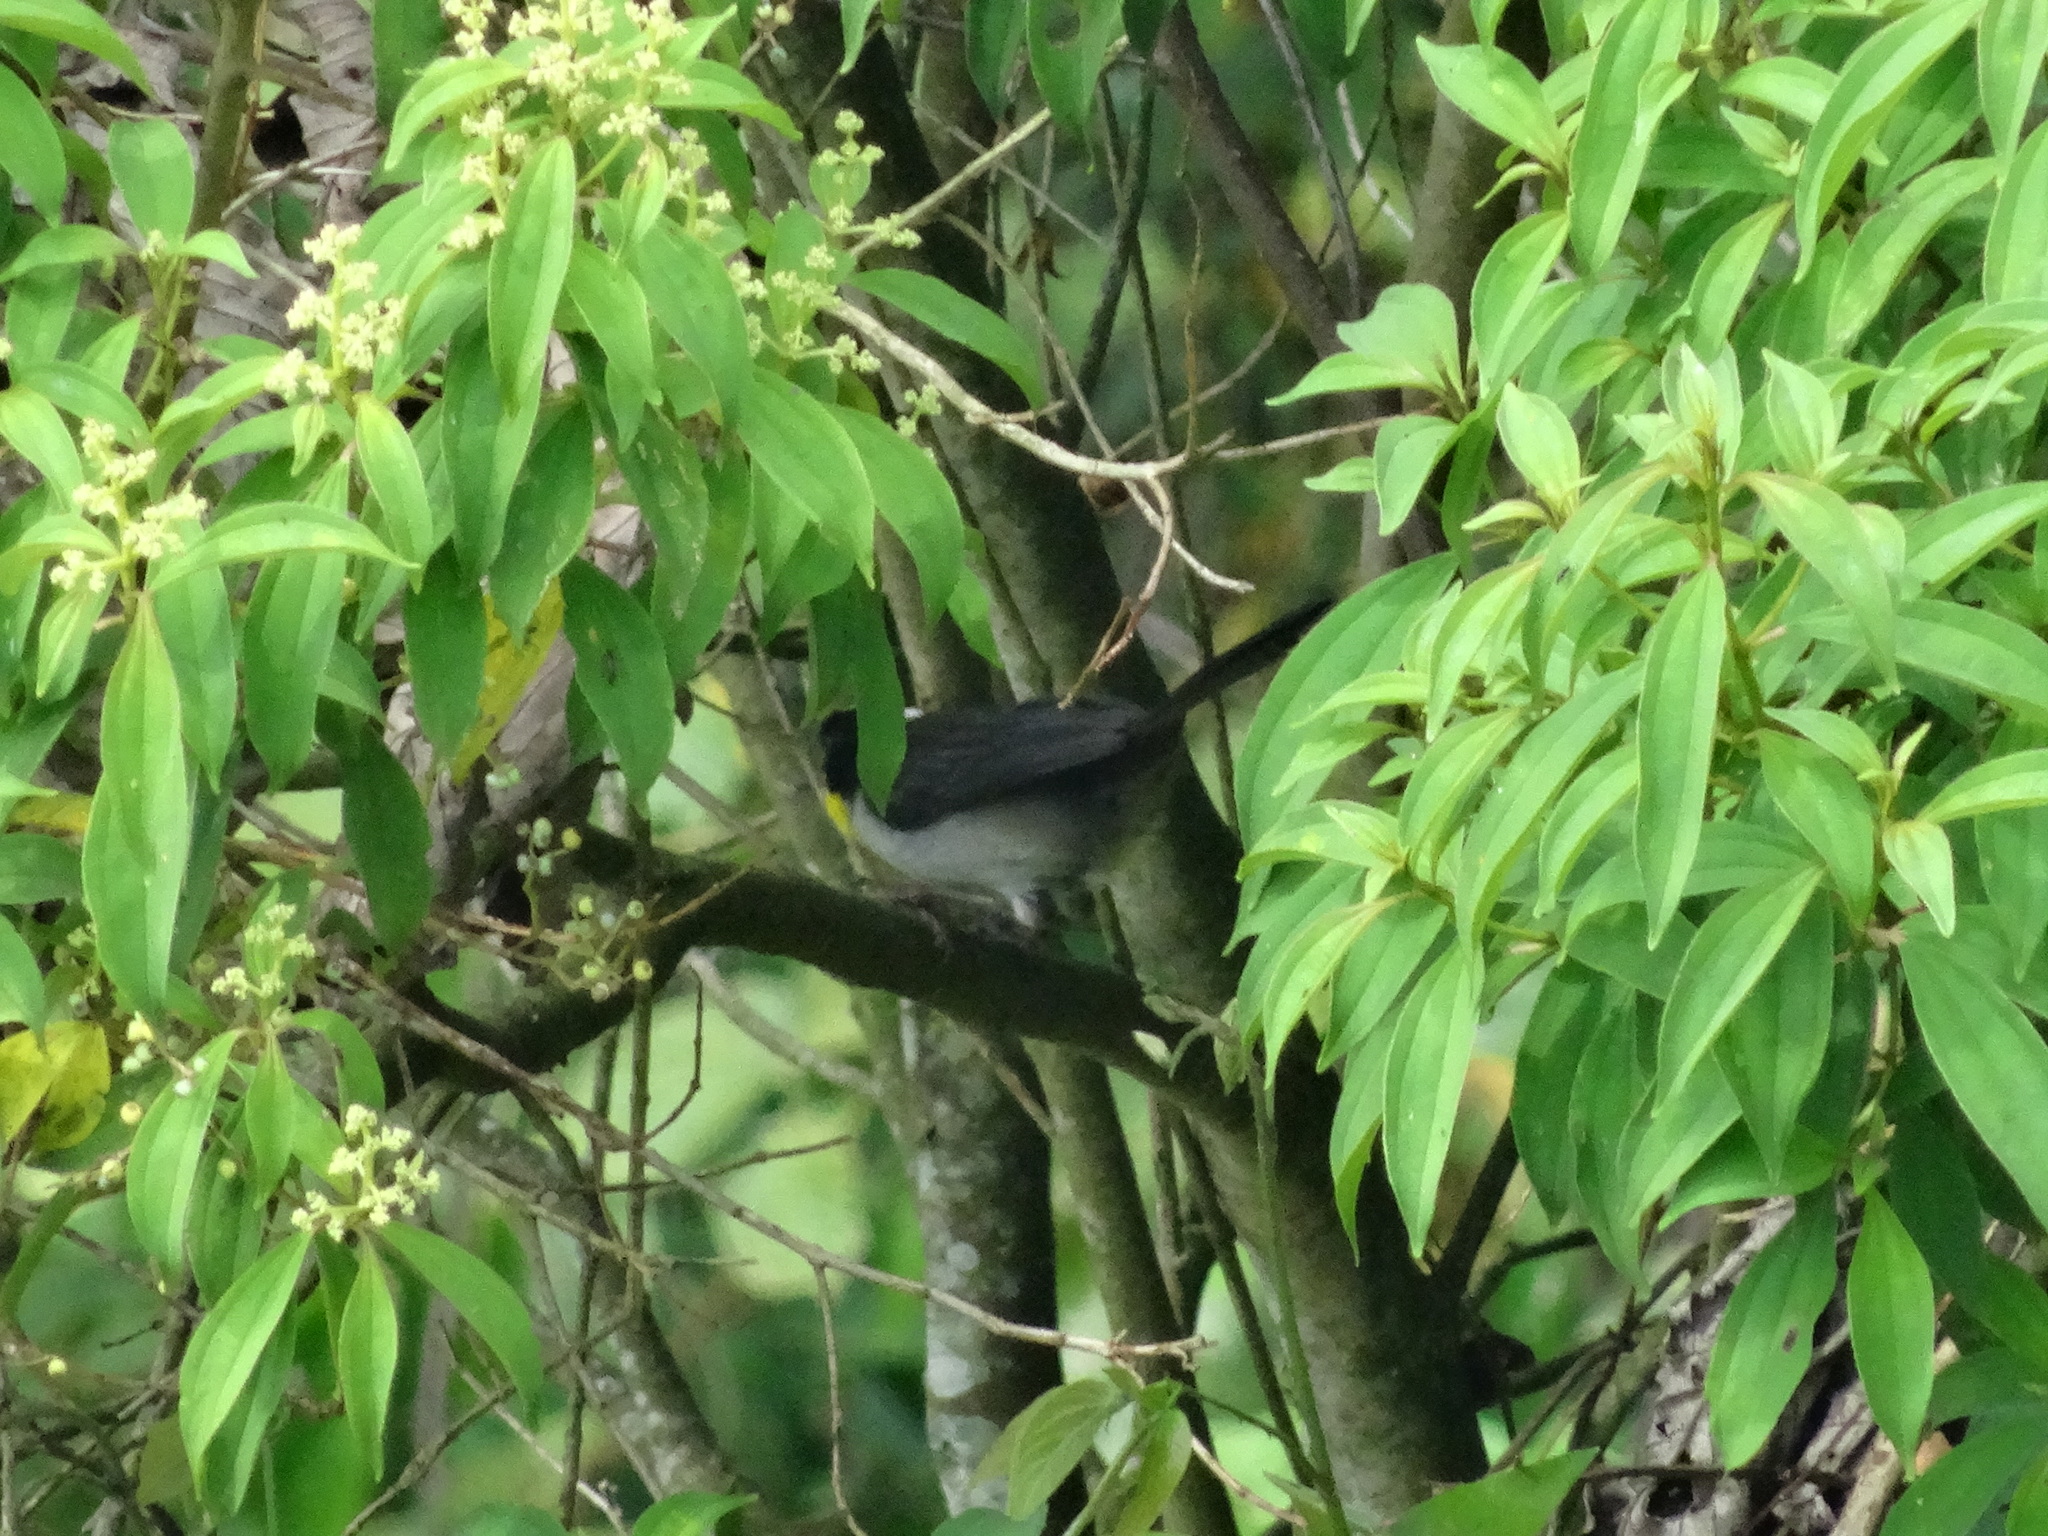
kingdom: Animalia
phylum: Chordata
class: Aves
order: Passeriformes
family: Passerellidae
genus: Atlapetes
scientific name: Atlapetes albinucha
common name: White-naped brush-finch
